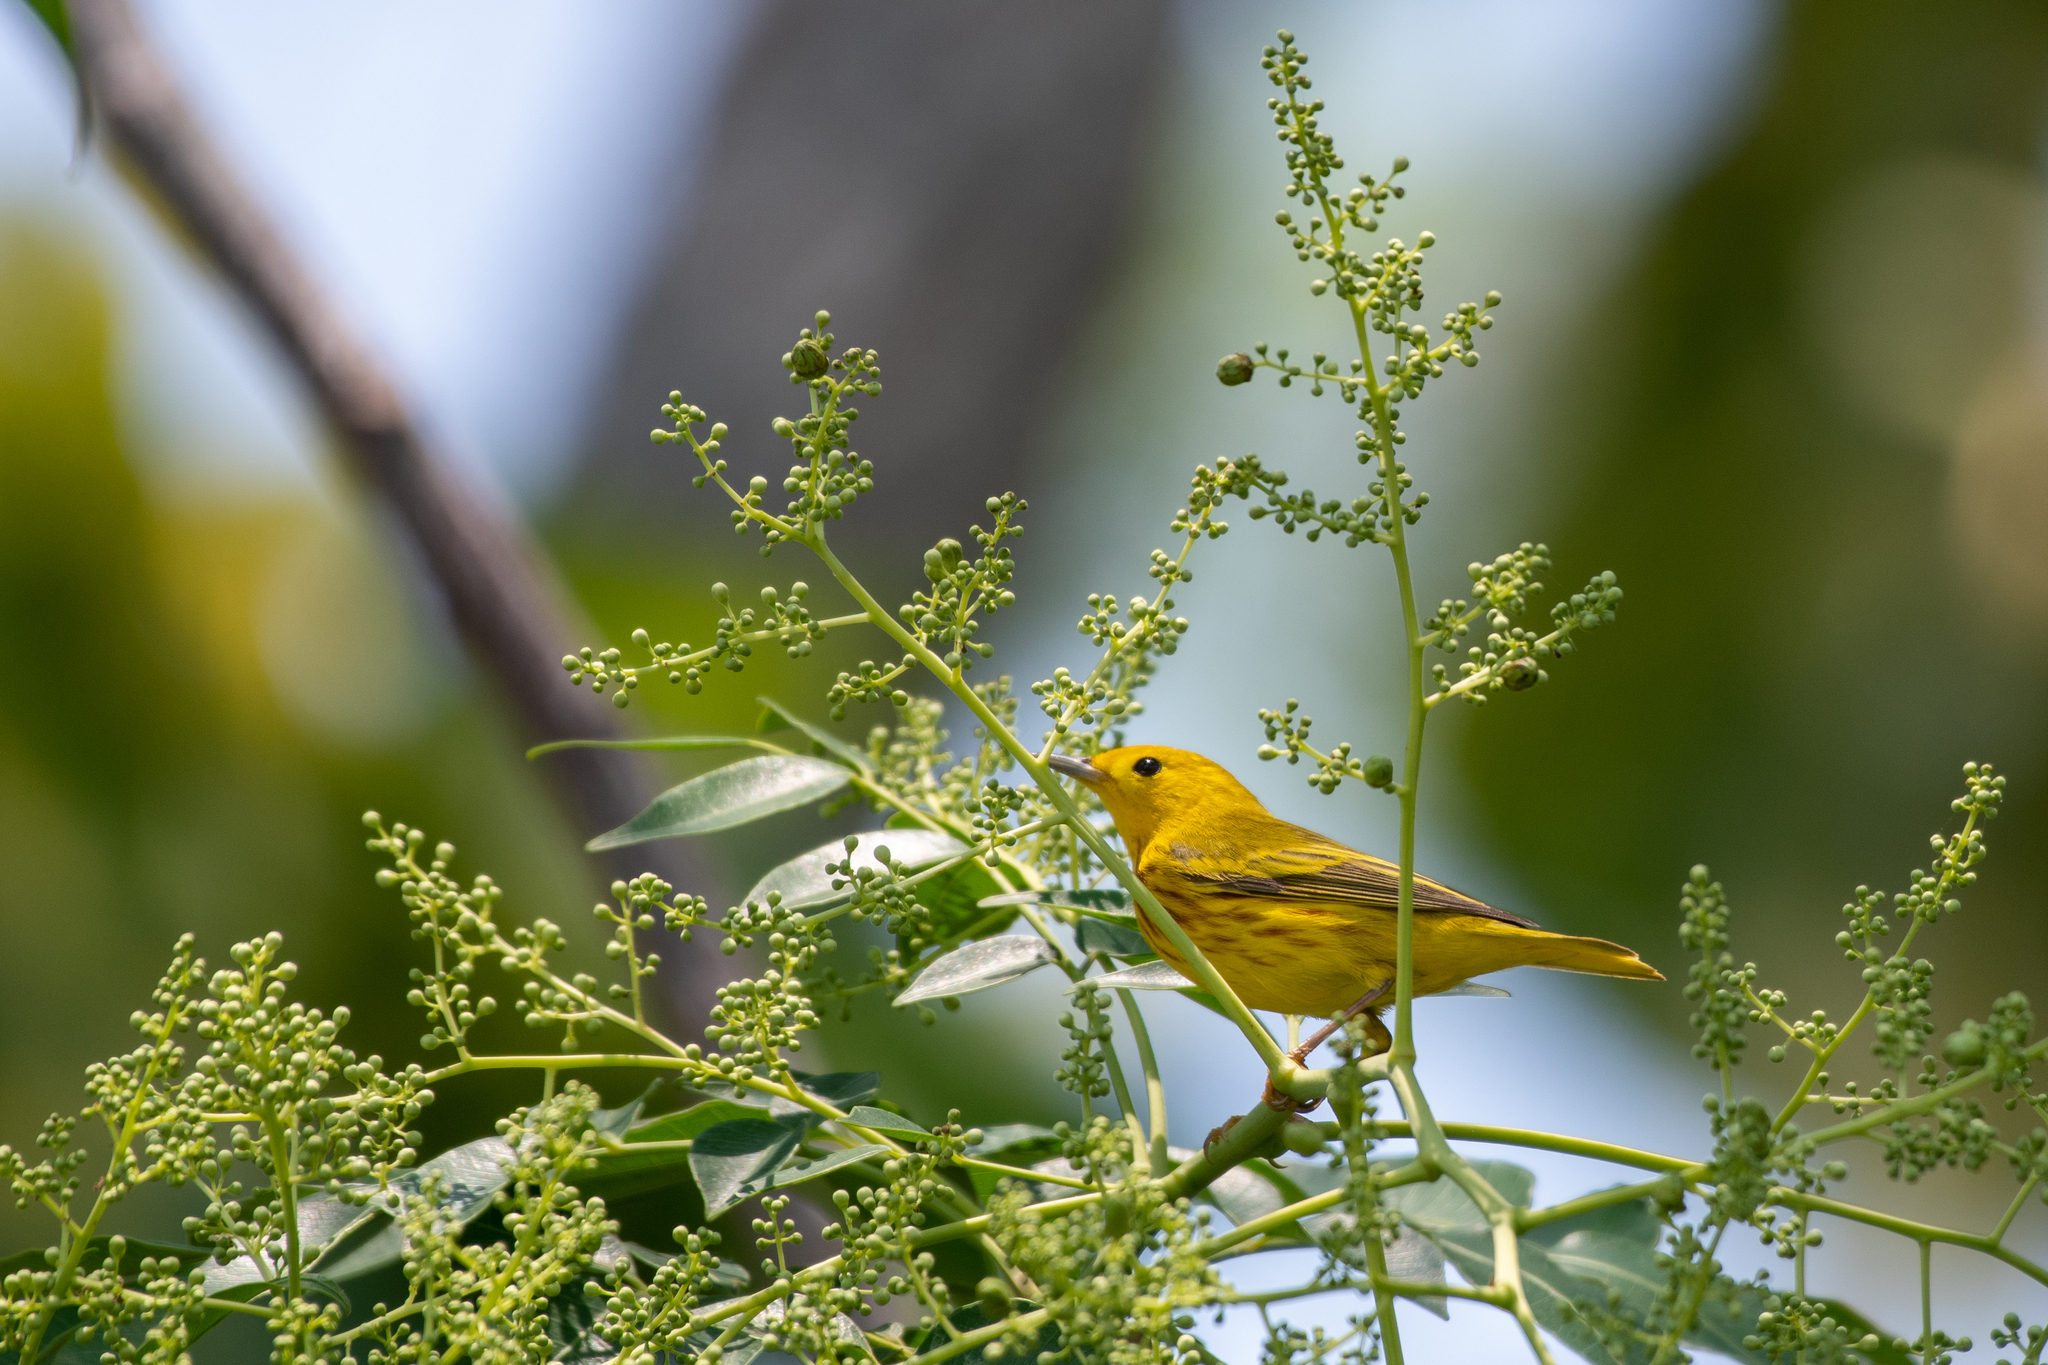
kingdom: Animalia
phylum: Chordata
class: Aves
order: Passeriformes
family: Parulidae
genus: Setophaga
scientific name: Setophaga petechia
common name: Yellow warbler
